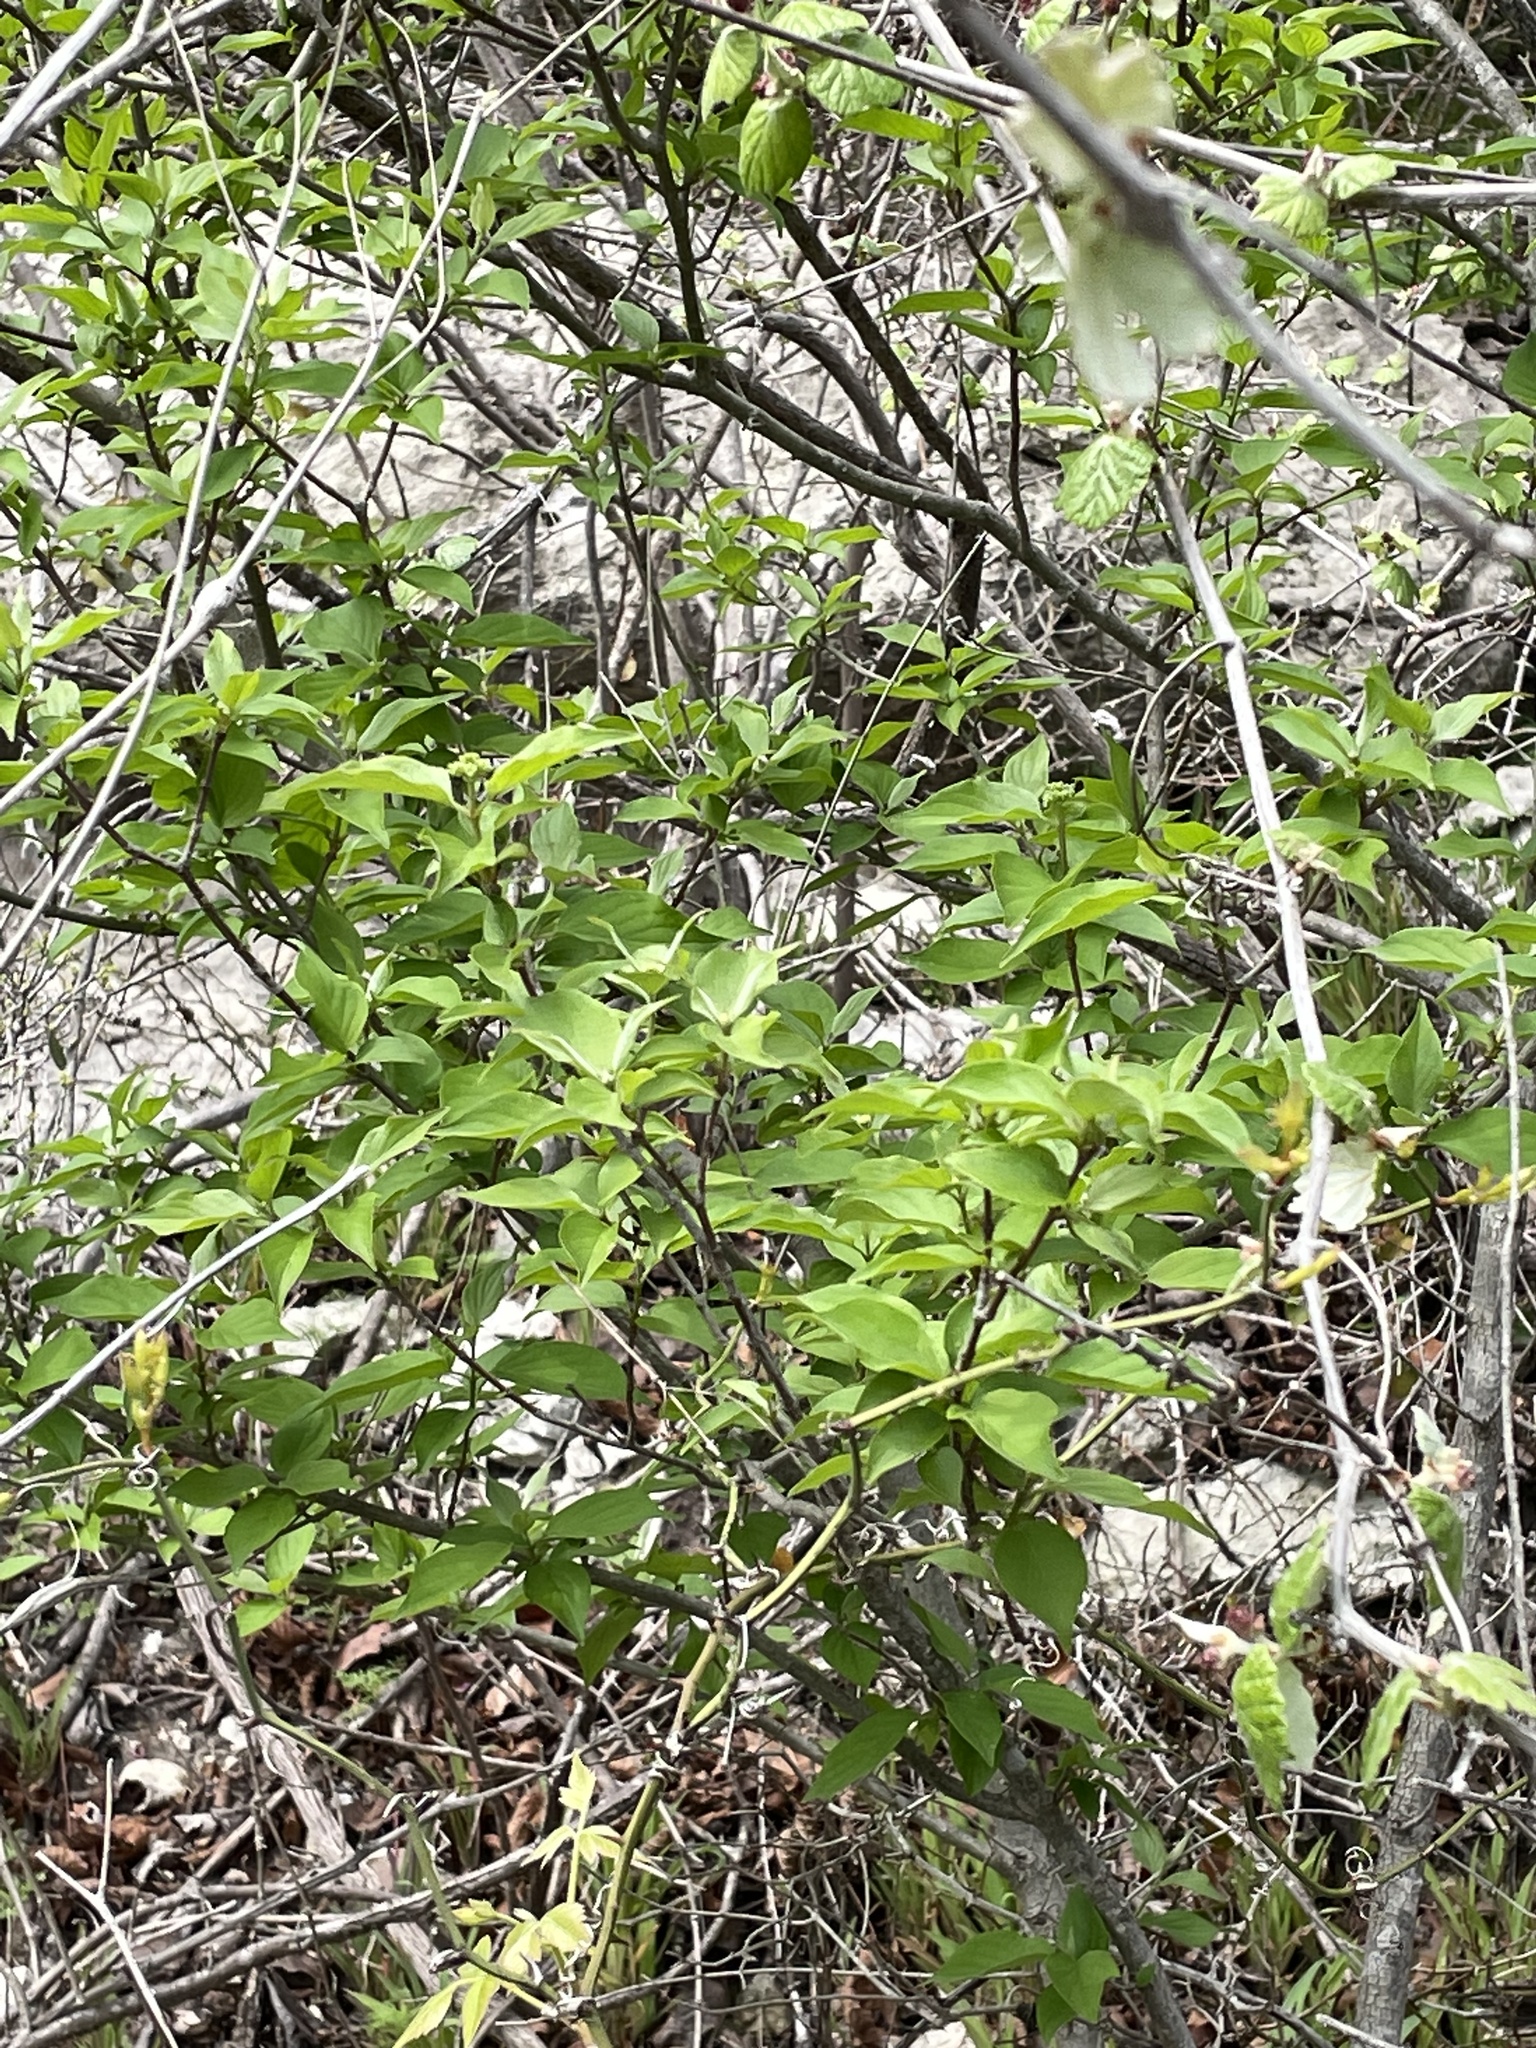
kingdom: Plantae
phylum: Tracheophyta
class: Magnoliopsida
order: Cornales
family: Cornaceae
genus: Cornus
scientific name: Cornus drummondii
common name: Rough-leaf dogwood
